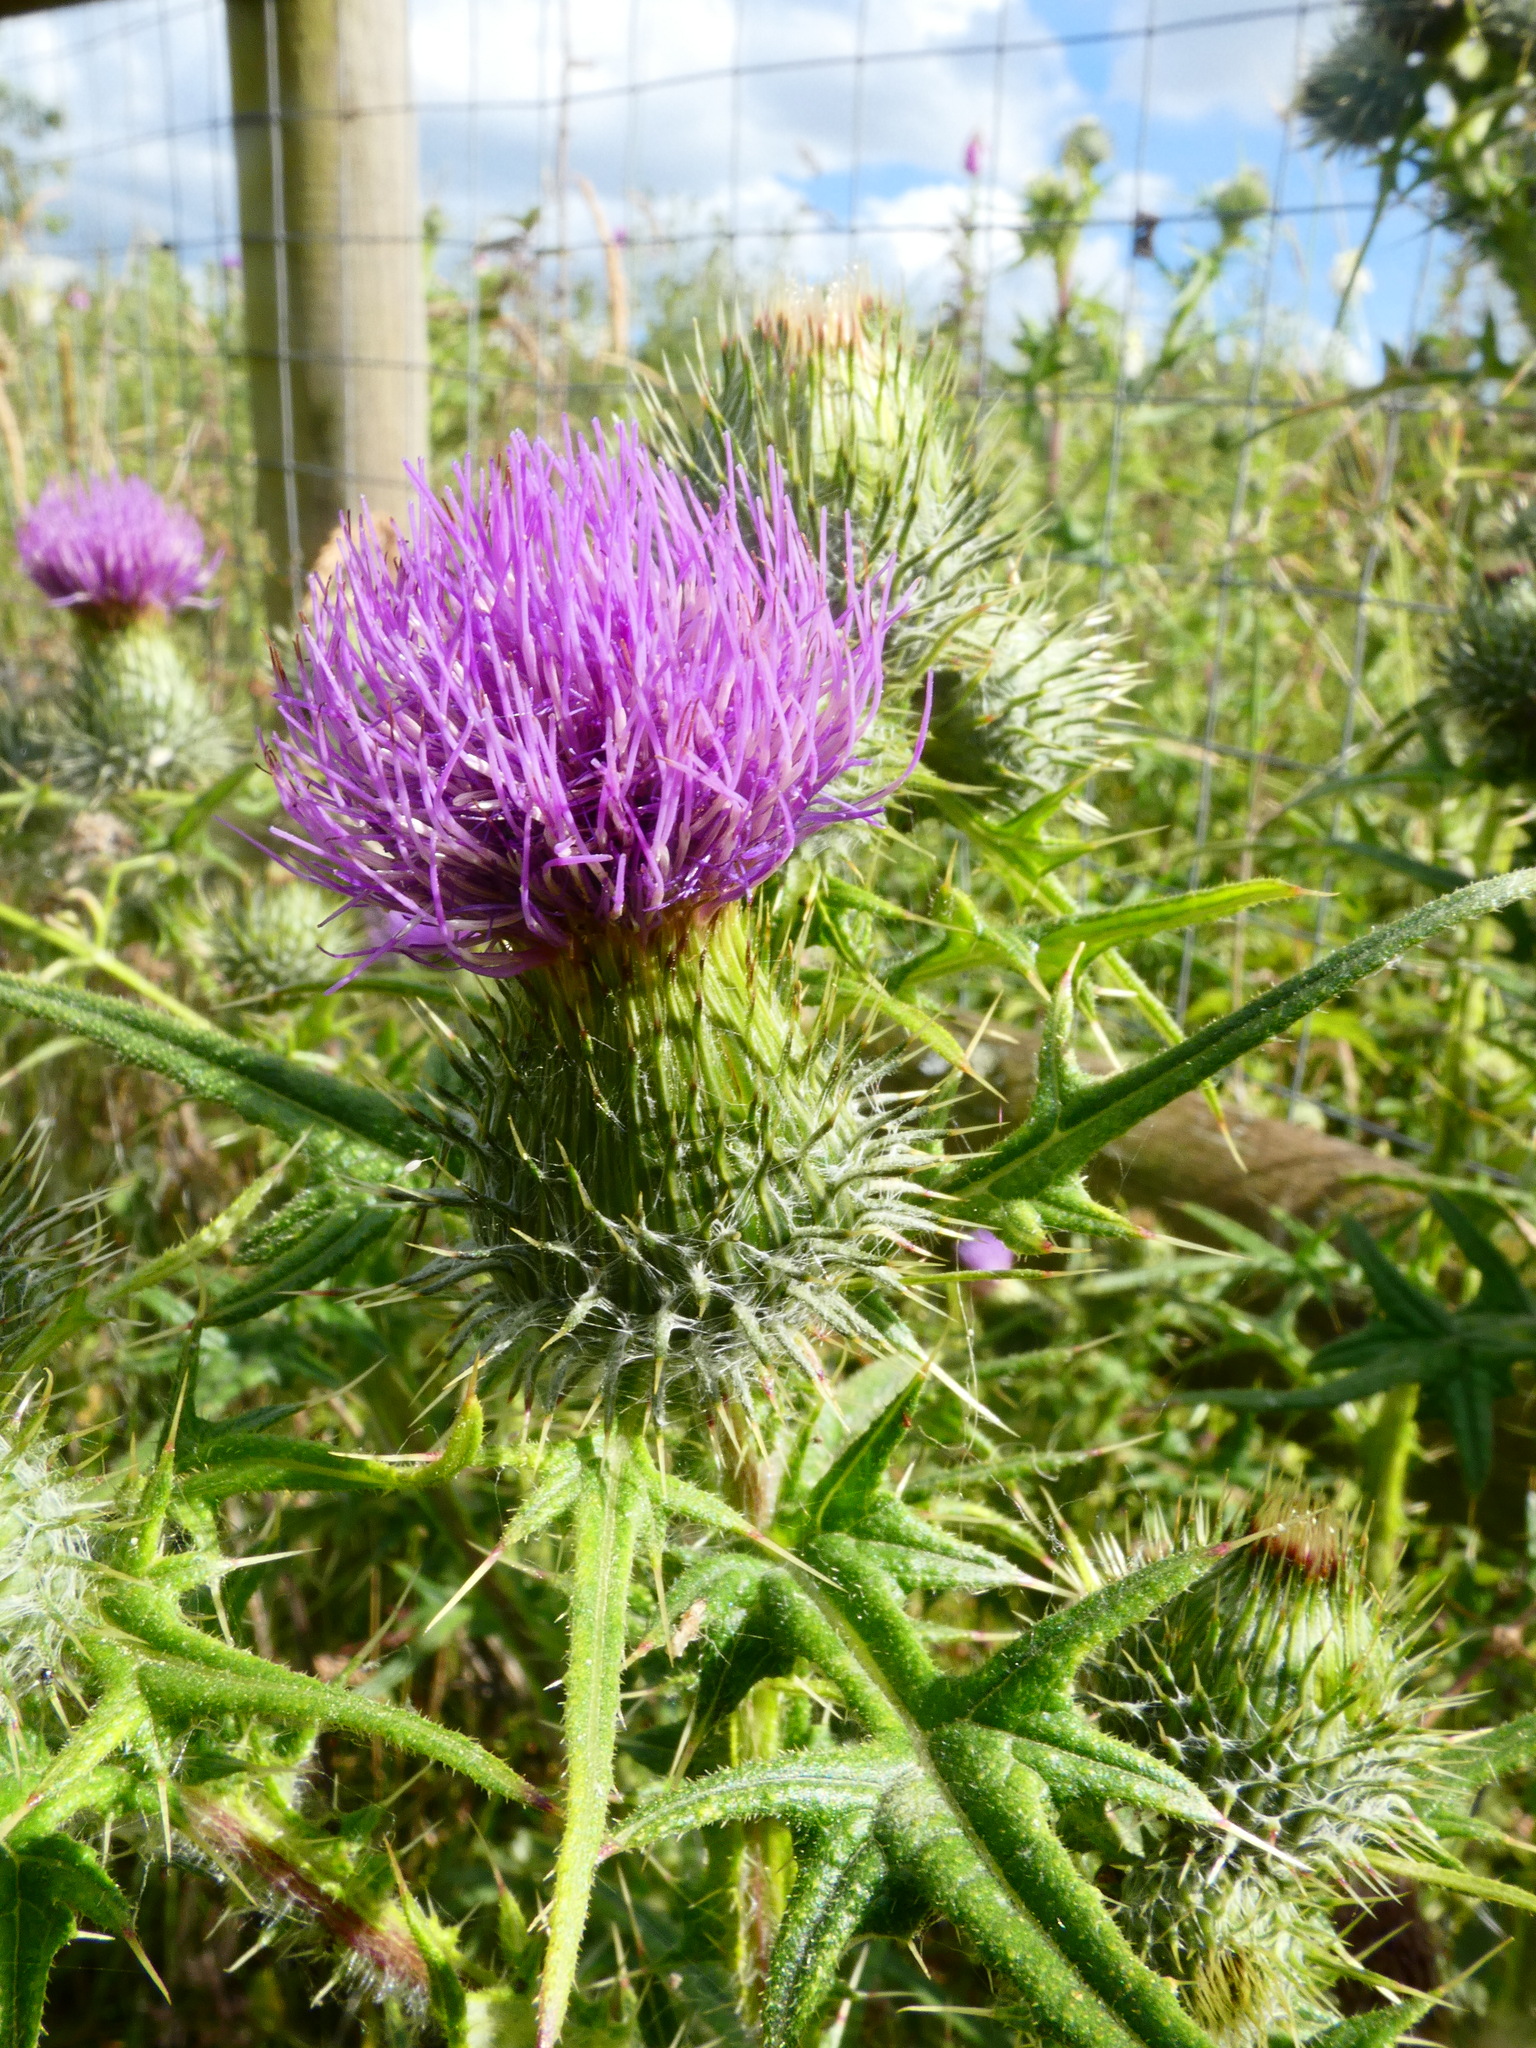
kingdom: Plantae
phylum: Tracheophyta
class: Magnoliopsida
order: Asterales
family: Asteraceae
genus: Cirsium
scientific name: Cirsium vulgare
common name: Bull thistle
